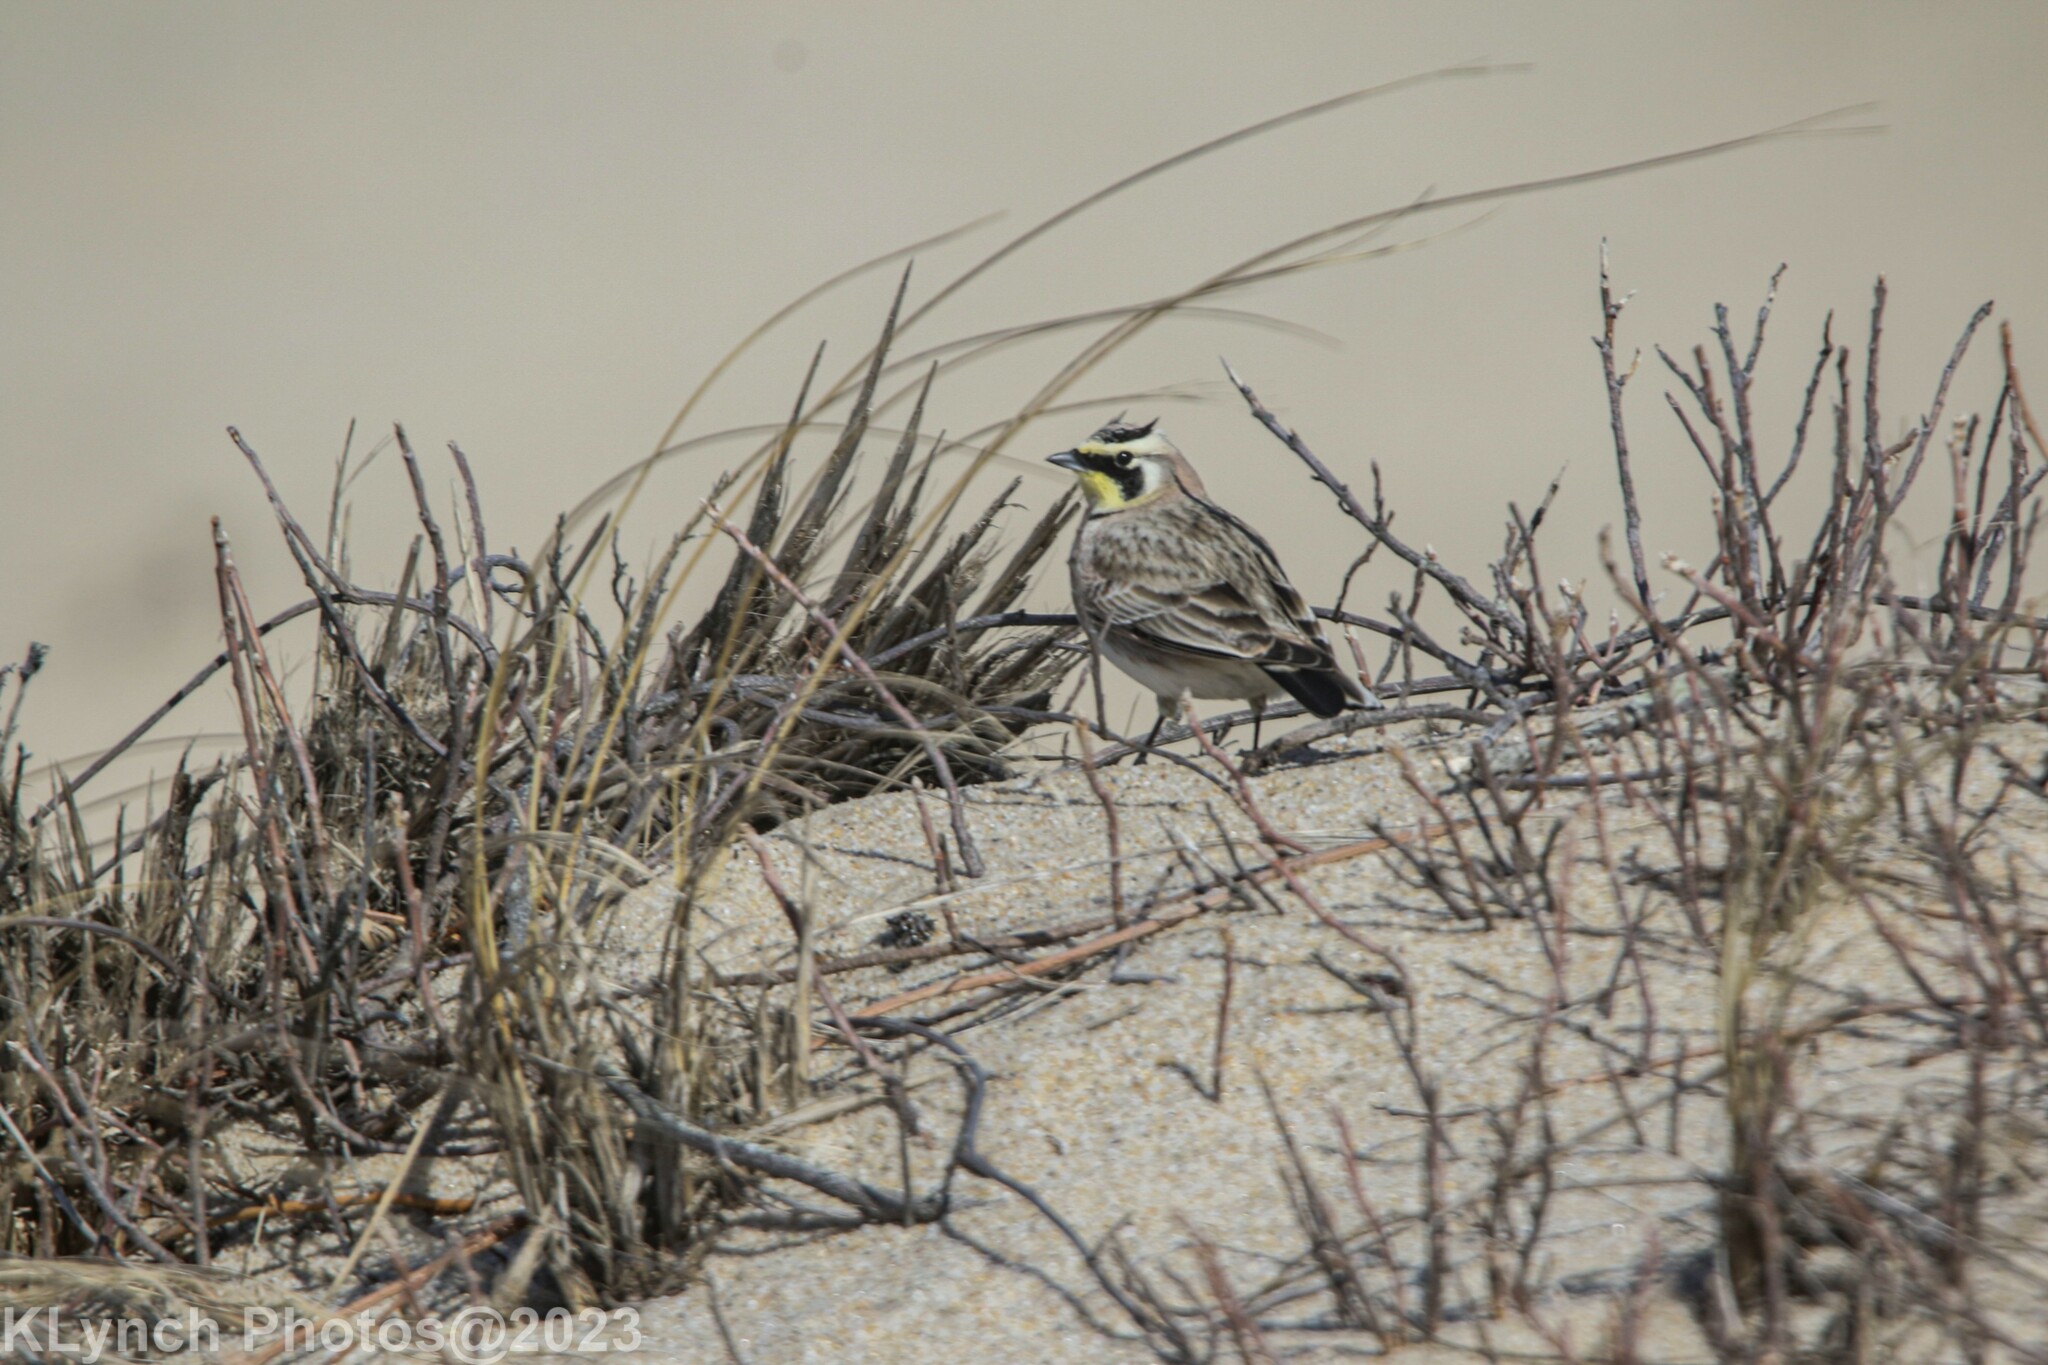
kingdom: Animalia
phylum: Chordata
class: Aves
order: Passeriformes
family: Alaudidae
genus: Eremophila
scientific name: Eremophila alpestris
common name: Horned lark
